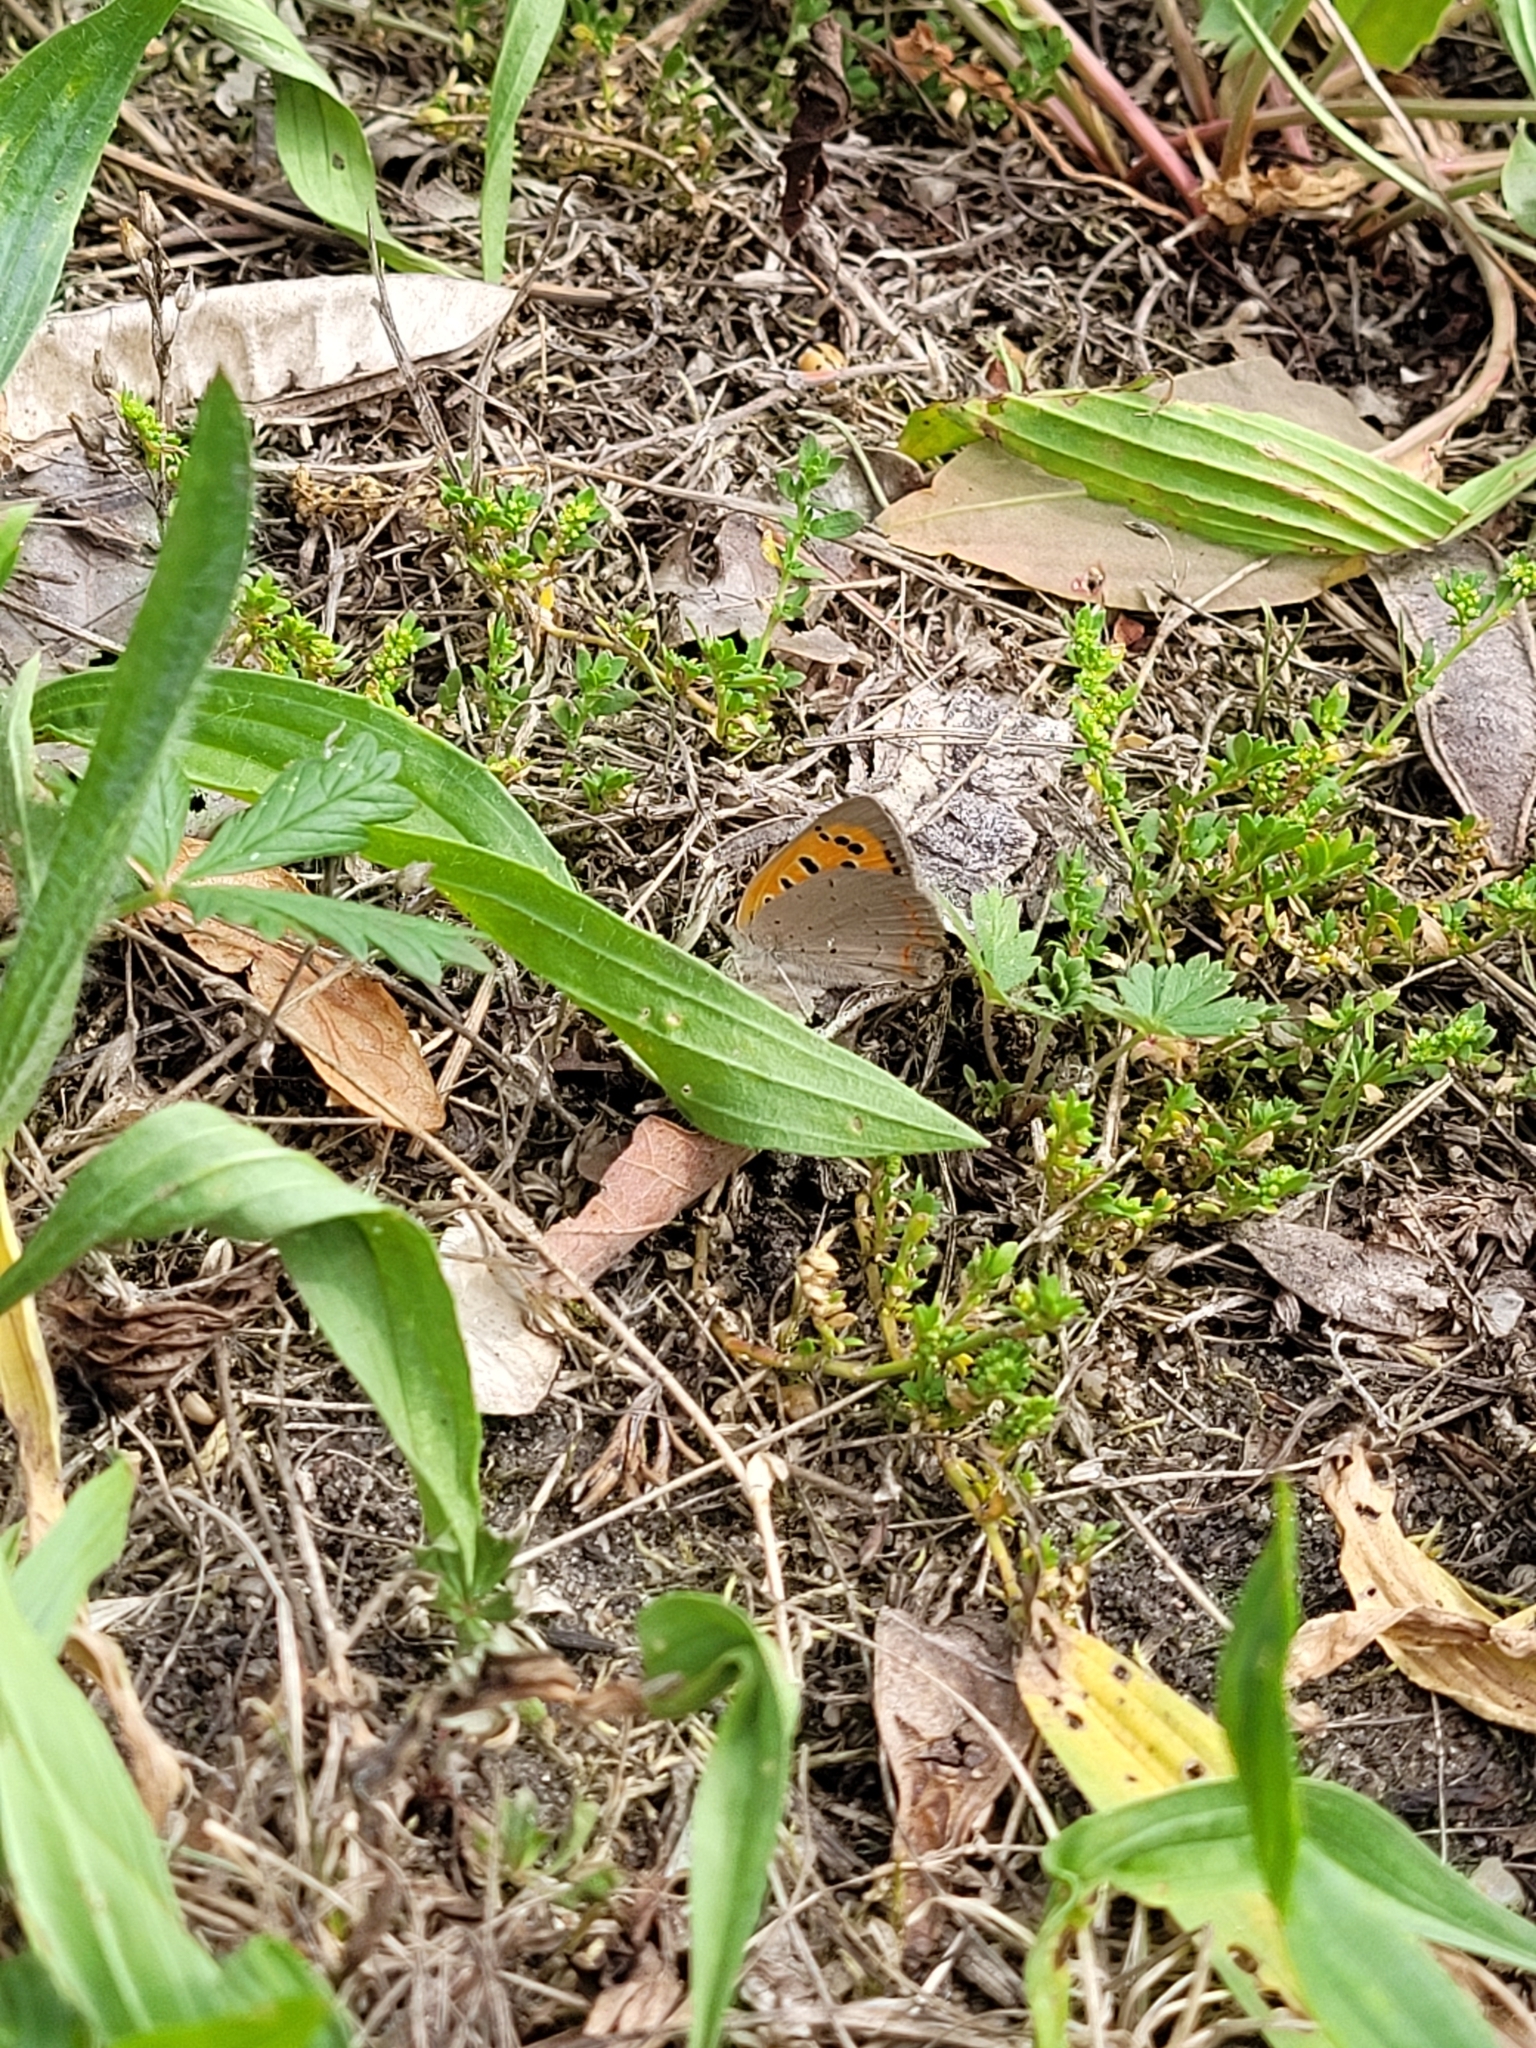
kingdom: Animalia
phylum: Arthropoda
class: Insecta
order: Lepidoptera
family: Lycaenidae
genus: Lycaena
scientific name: Lycaena phlaeas
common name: Small copper
